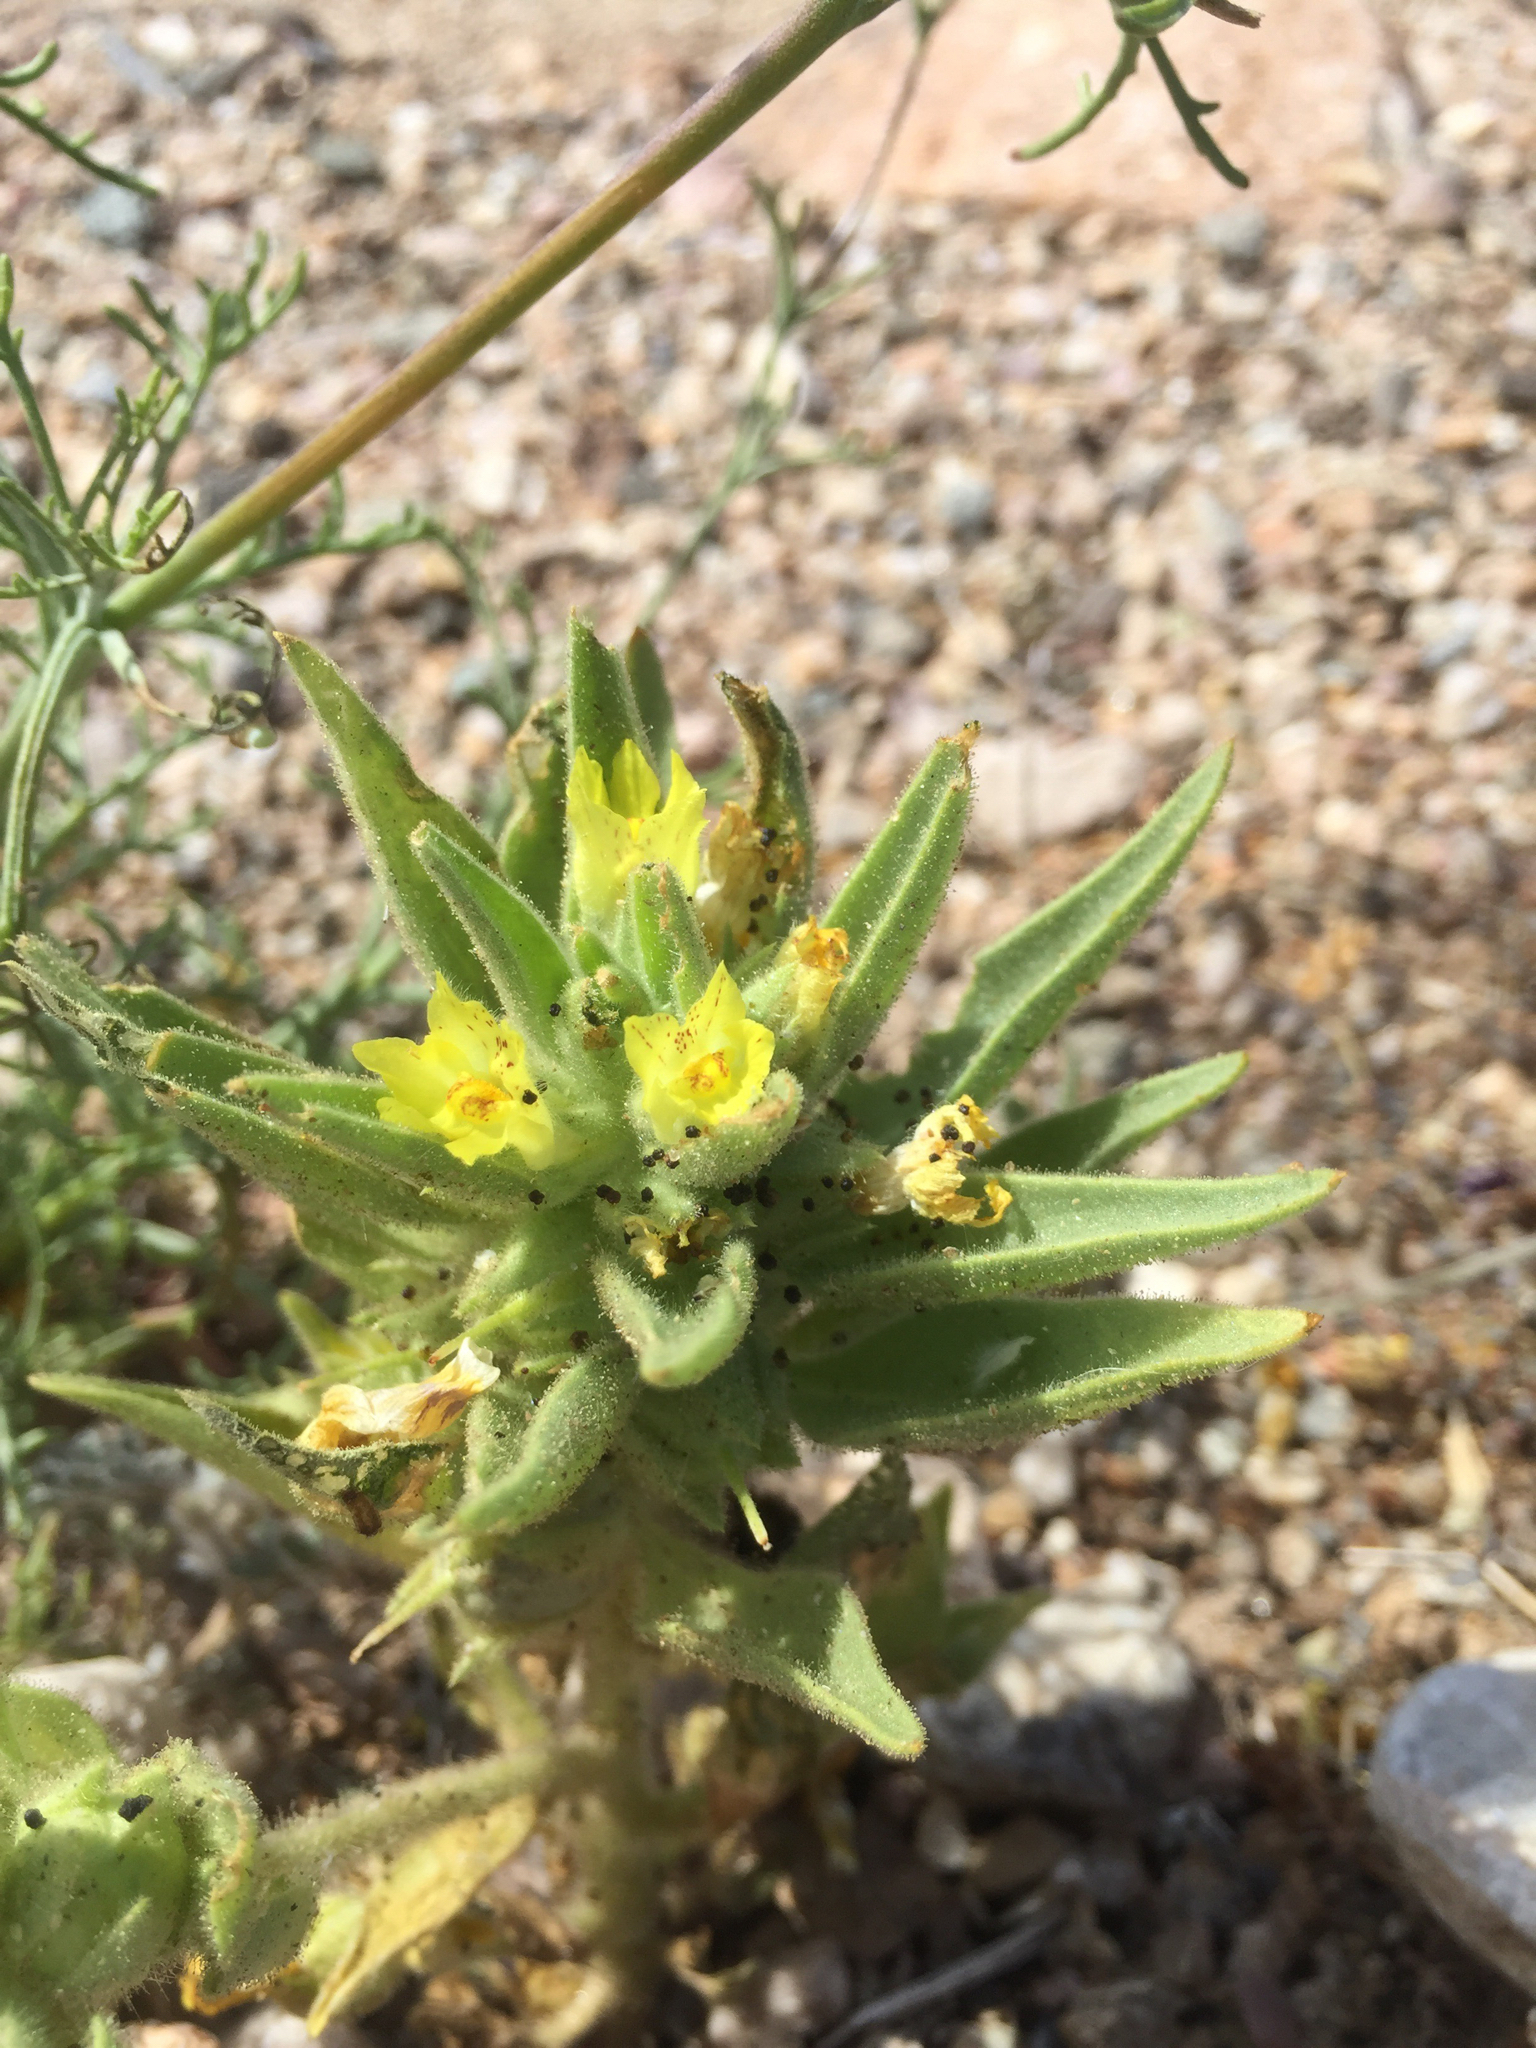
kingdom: Plantae
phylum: Tracheophyta
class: Magnoliopsida
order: Lamiales
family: Plantaginaceae
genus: Mohavea
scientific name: Mohavea breviflora
